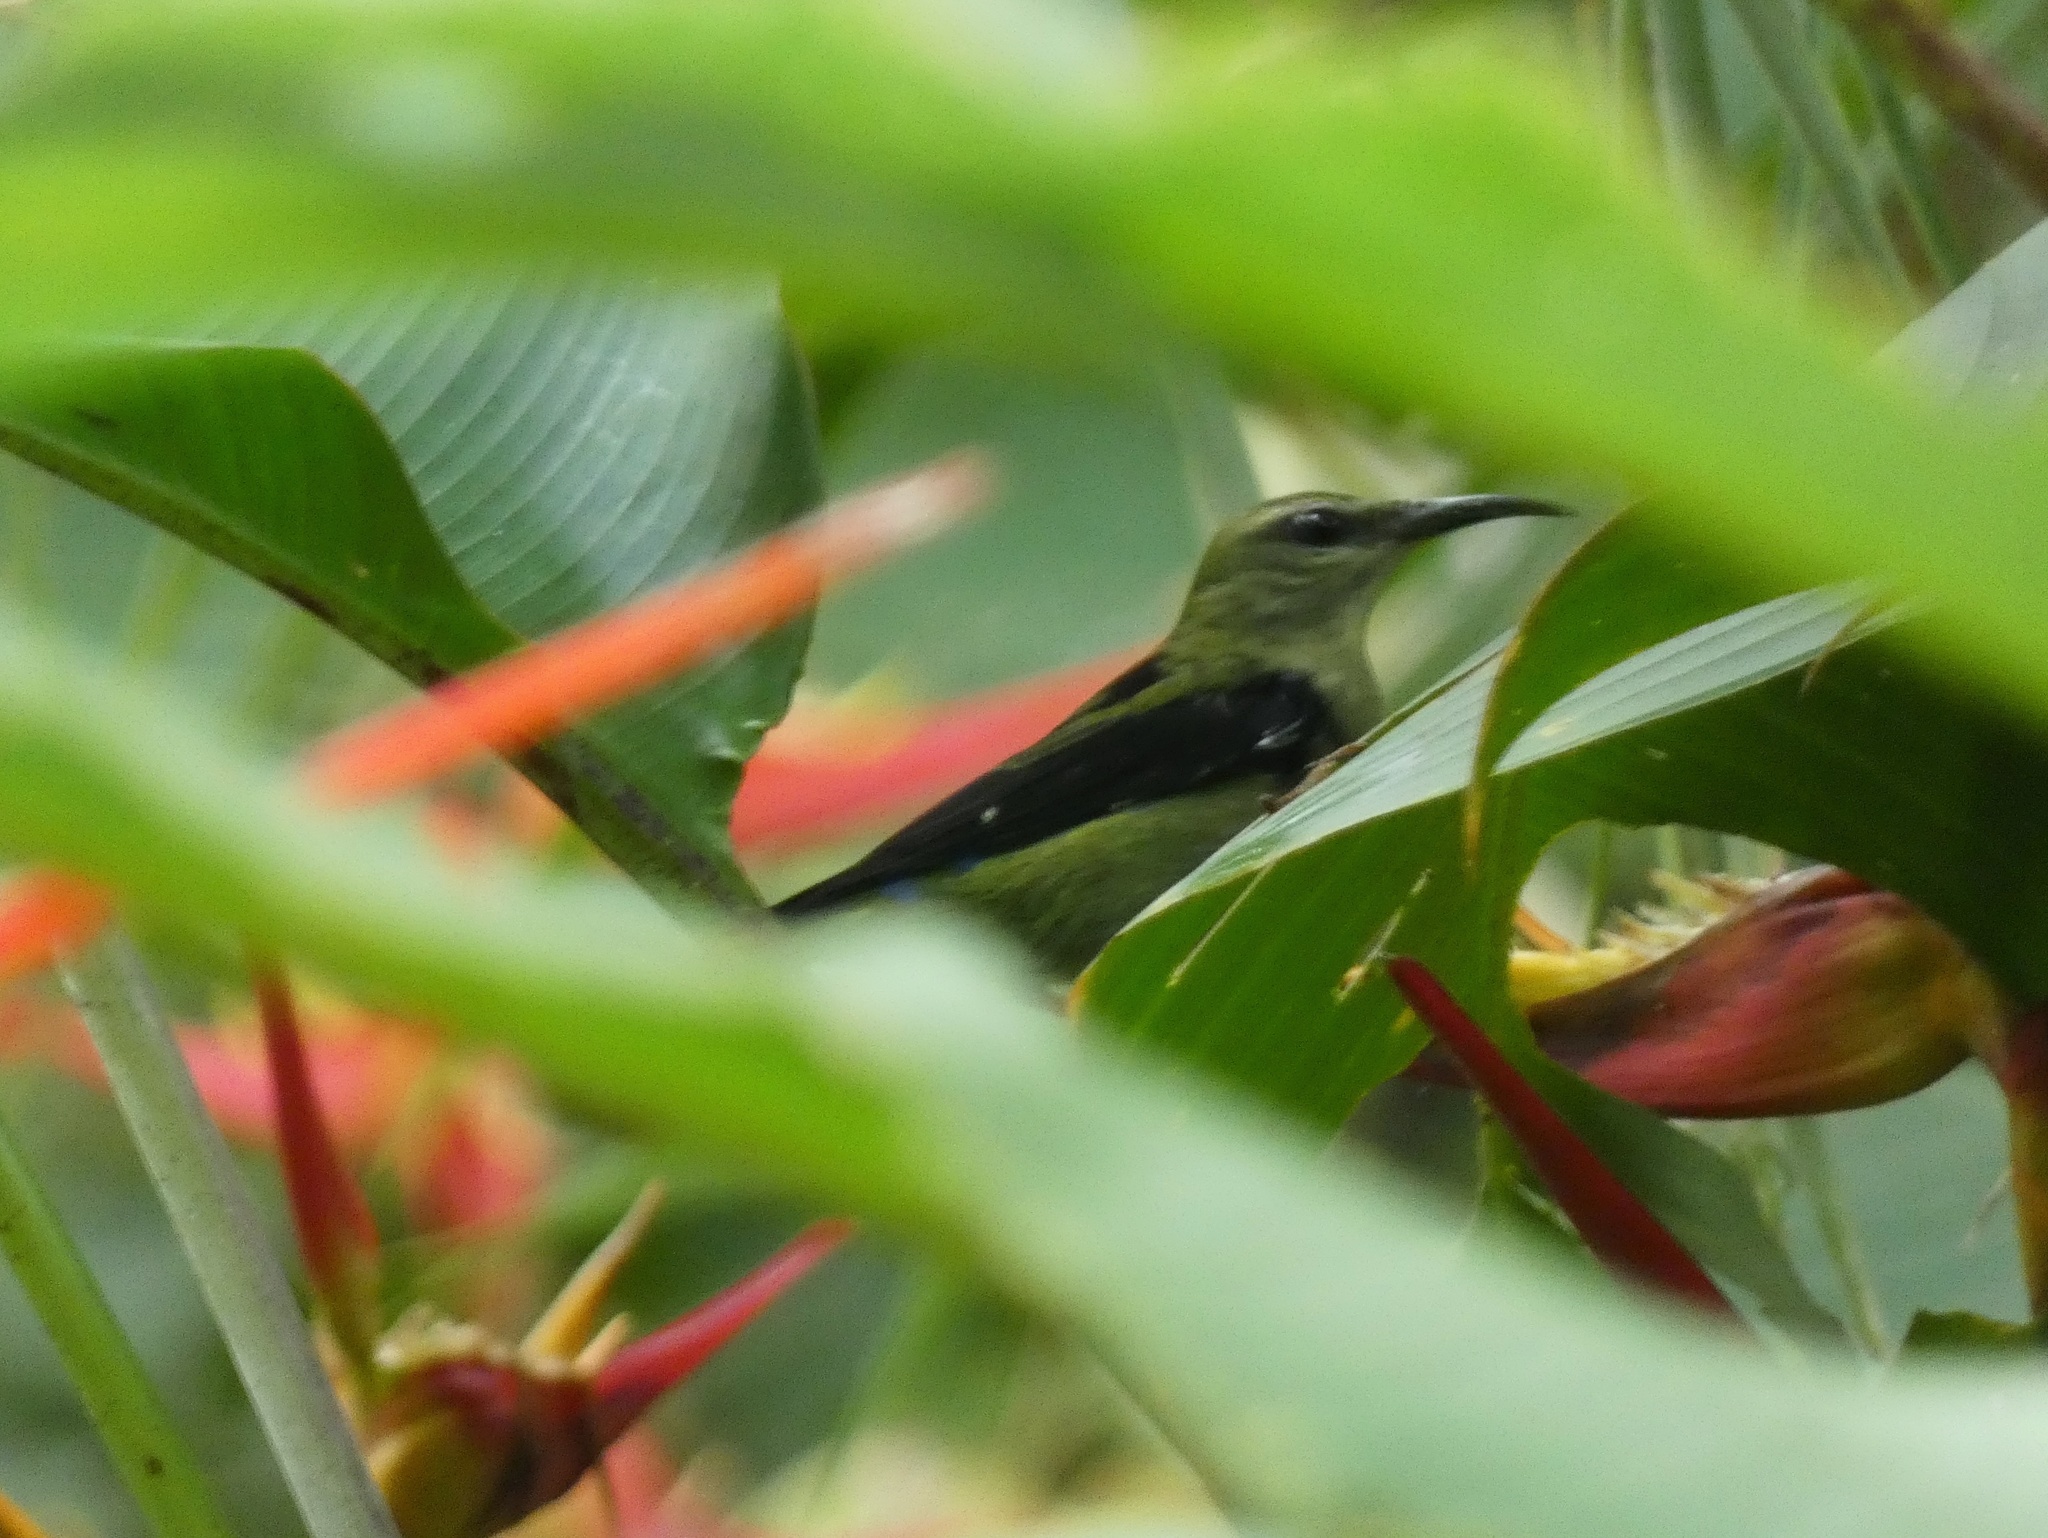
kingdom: Animalia
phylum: Chordata
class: Aves
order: Passeriformes
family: Thraupidae
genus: Cyanerpes
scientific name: Cyanerpes cyaneus
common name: Red-legged honeycreeper
